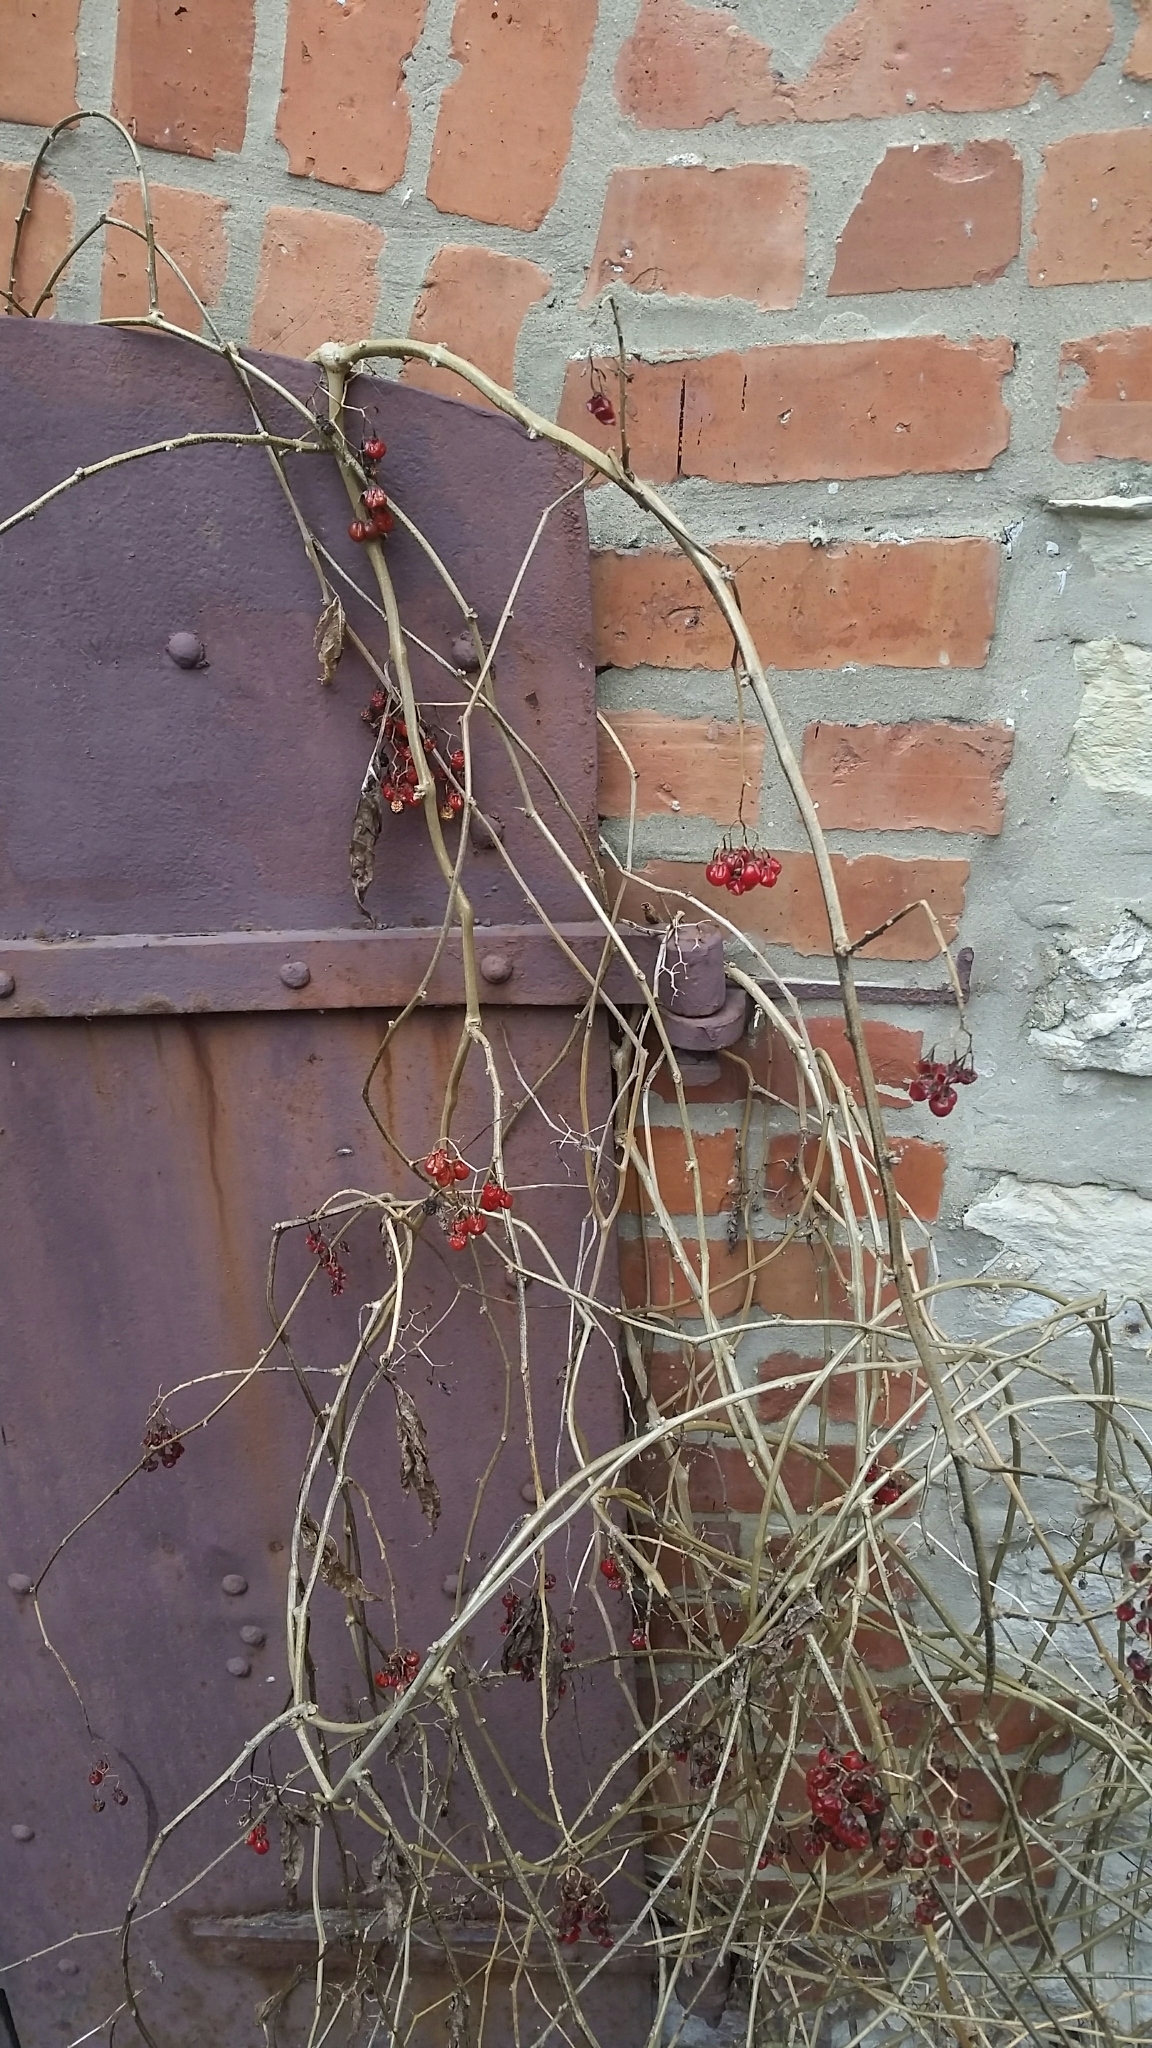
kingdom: Plantae
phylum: Tracheophyta
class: Magnoliopsida
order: Solanales
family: Solanaceae
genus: Solanum
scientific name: Solanum dulcamara
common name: Climbing nightshade
